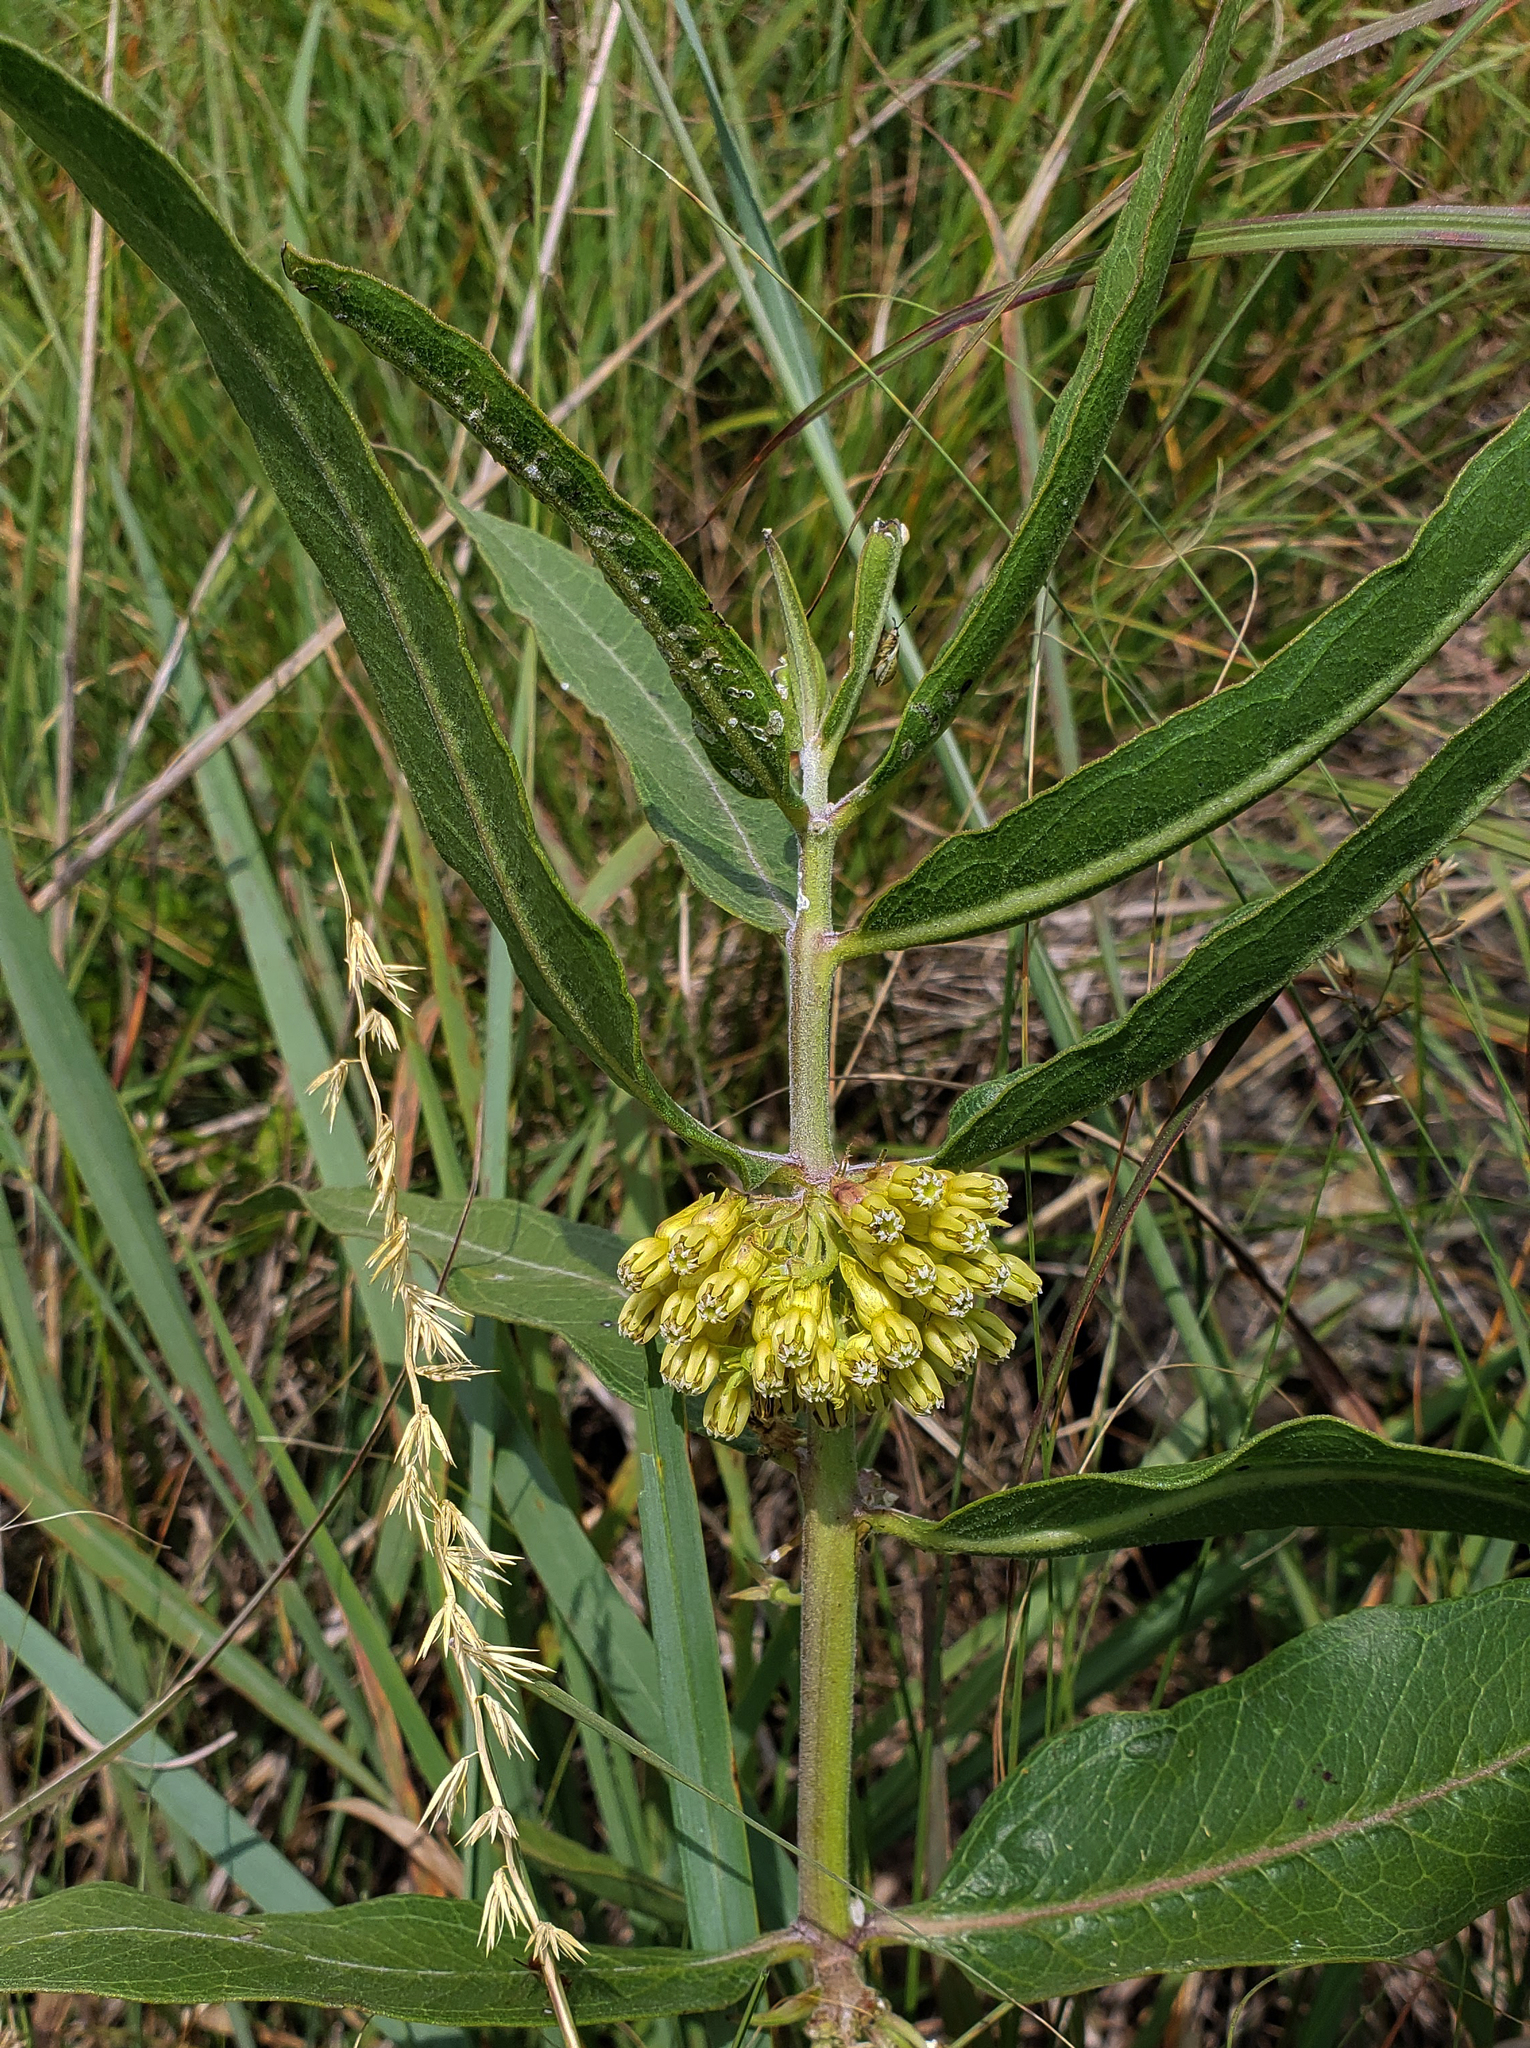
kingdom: Plantae
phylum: Tracheophyta
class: Magnoliopsida
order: Gentianales
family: Apocynaceae
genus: Asclepias
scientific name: Asclepias viridiflora
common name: Green comet milkweed
